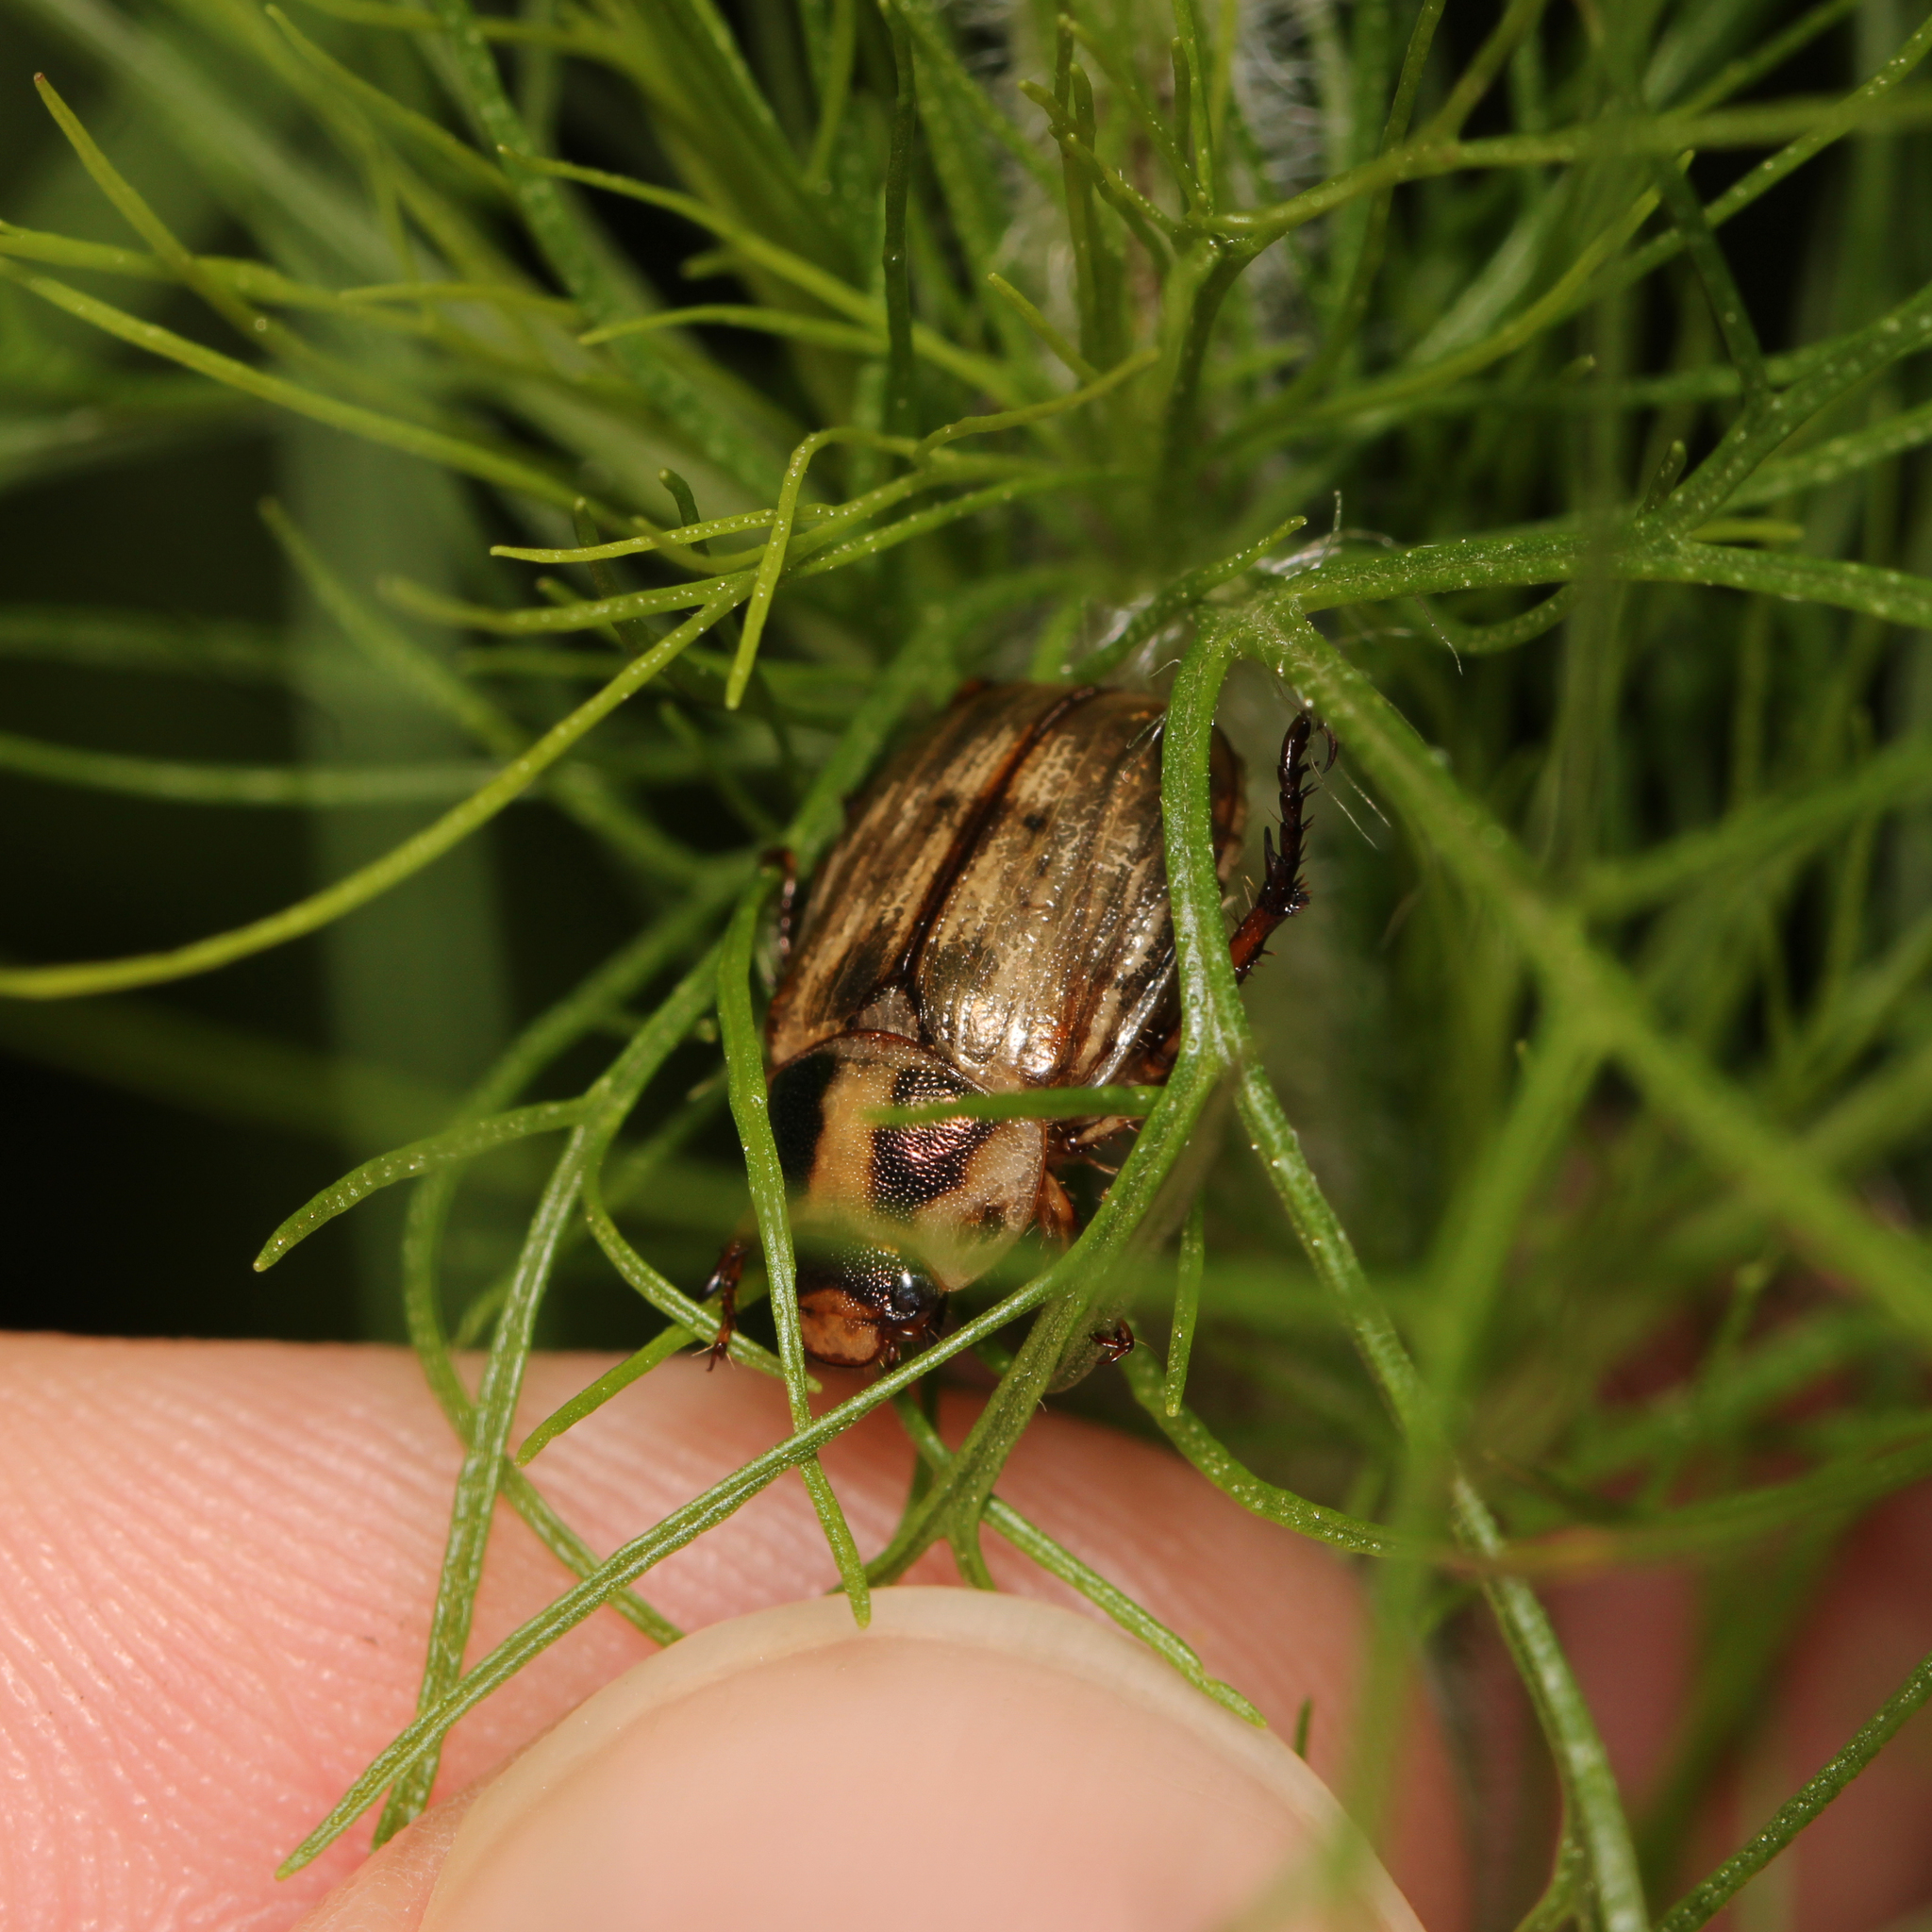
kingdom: Animalia
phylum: Arthropoda
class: Insecta
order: Coleoptera
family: Scarabaeidae
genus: Exomala
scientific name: Exomala orientalis
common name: Oriental beetle
